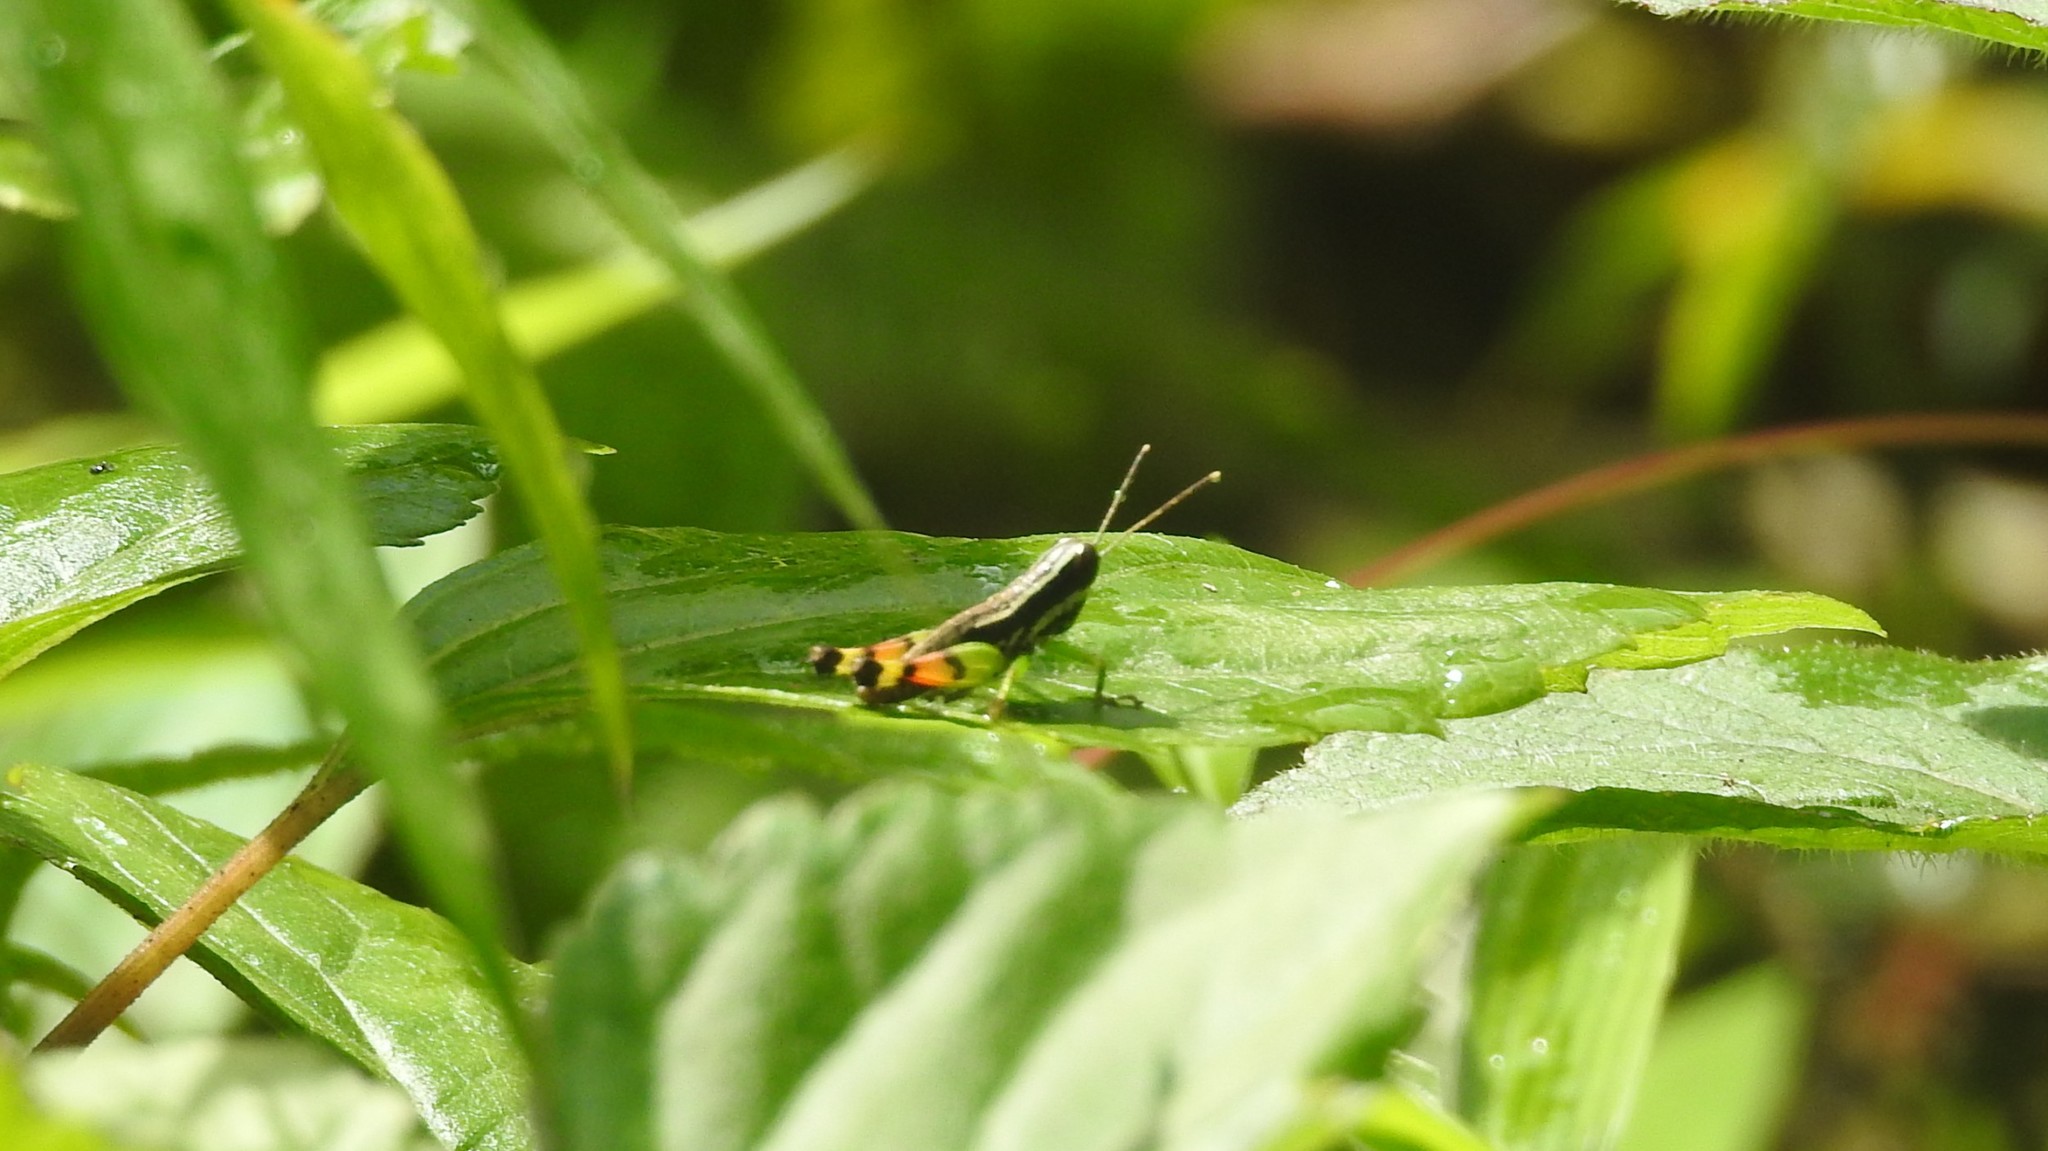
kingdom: Animalia
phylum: Arthropoda
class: Insecta
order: Orthoptera
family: Acrididae
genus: Chitaura
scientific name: Chitaura indica
